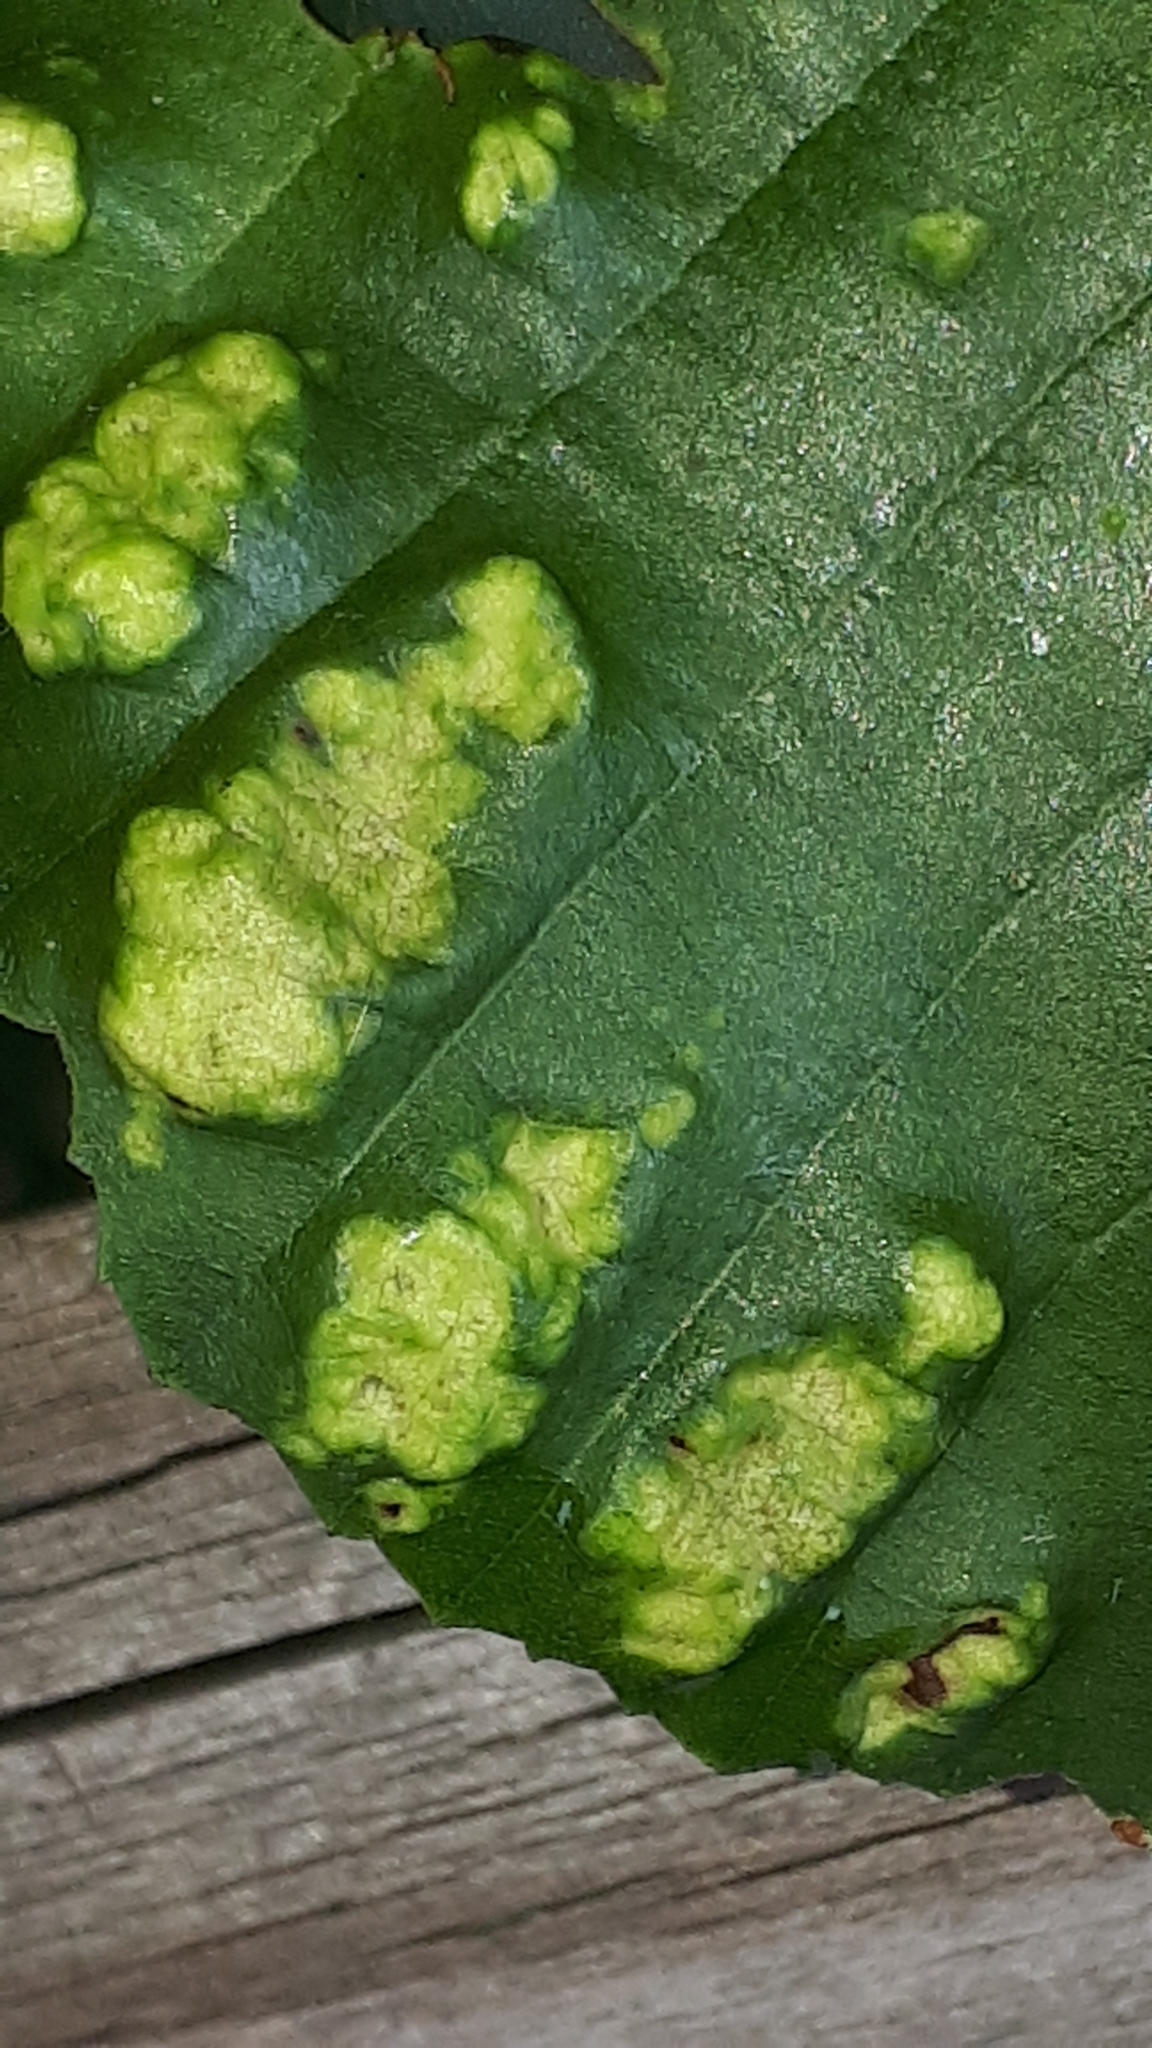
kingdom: Animalia
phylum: Arthropoda
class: Arachnida
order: Trombidiformes
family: Eriophyidae
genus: Acalitus
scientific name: Acalitus brevitarsus
